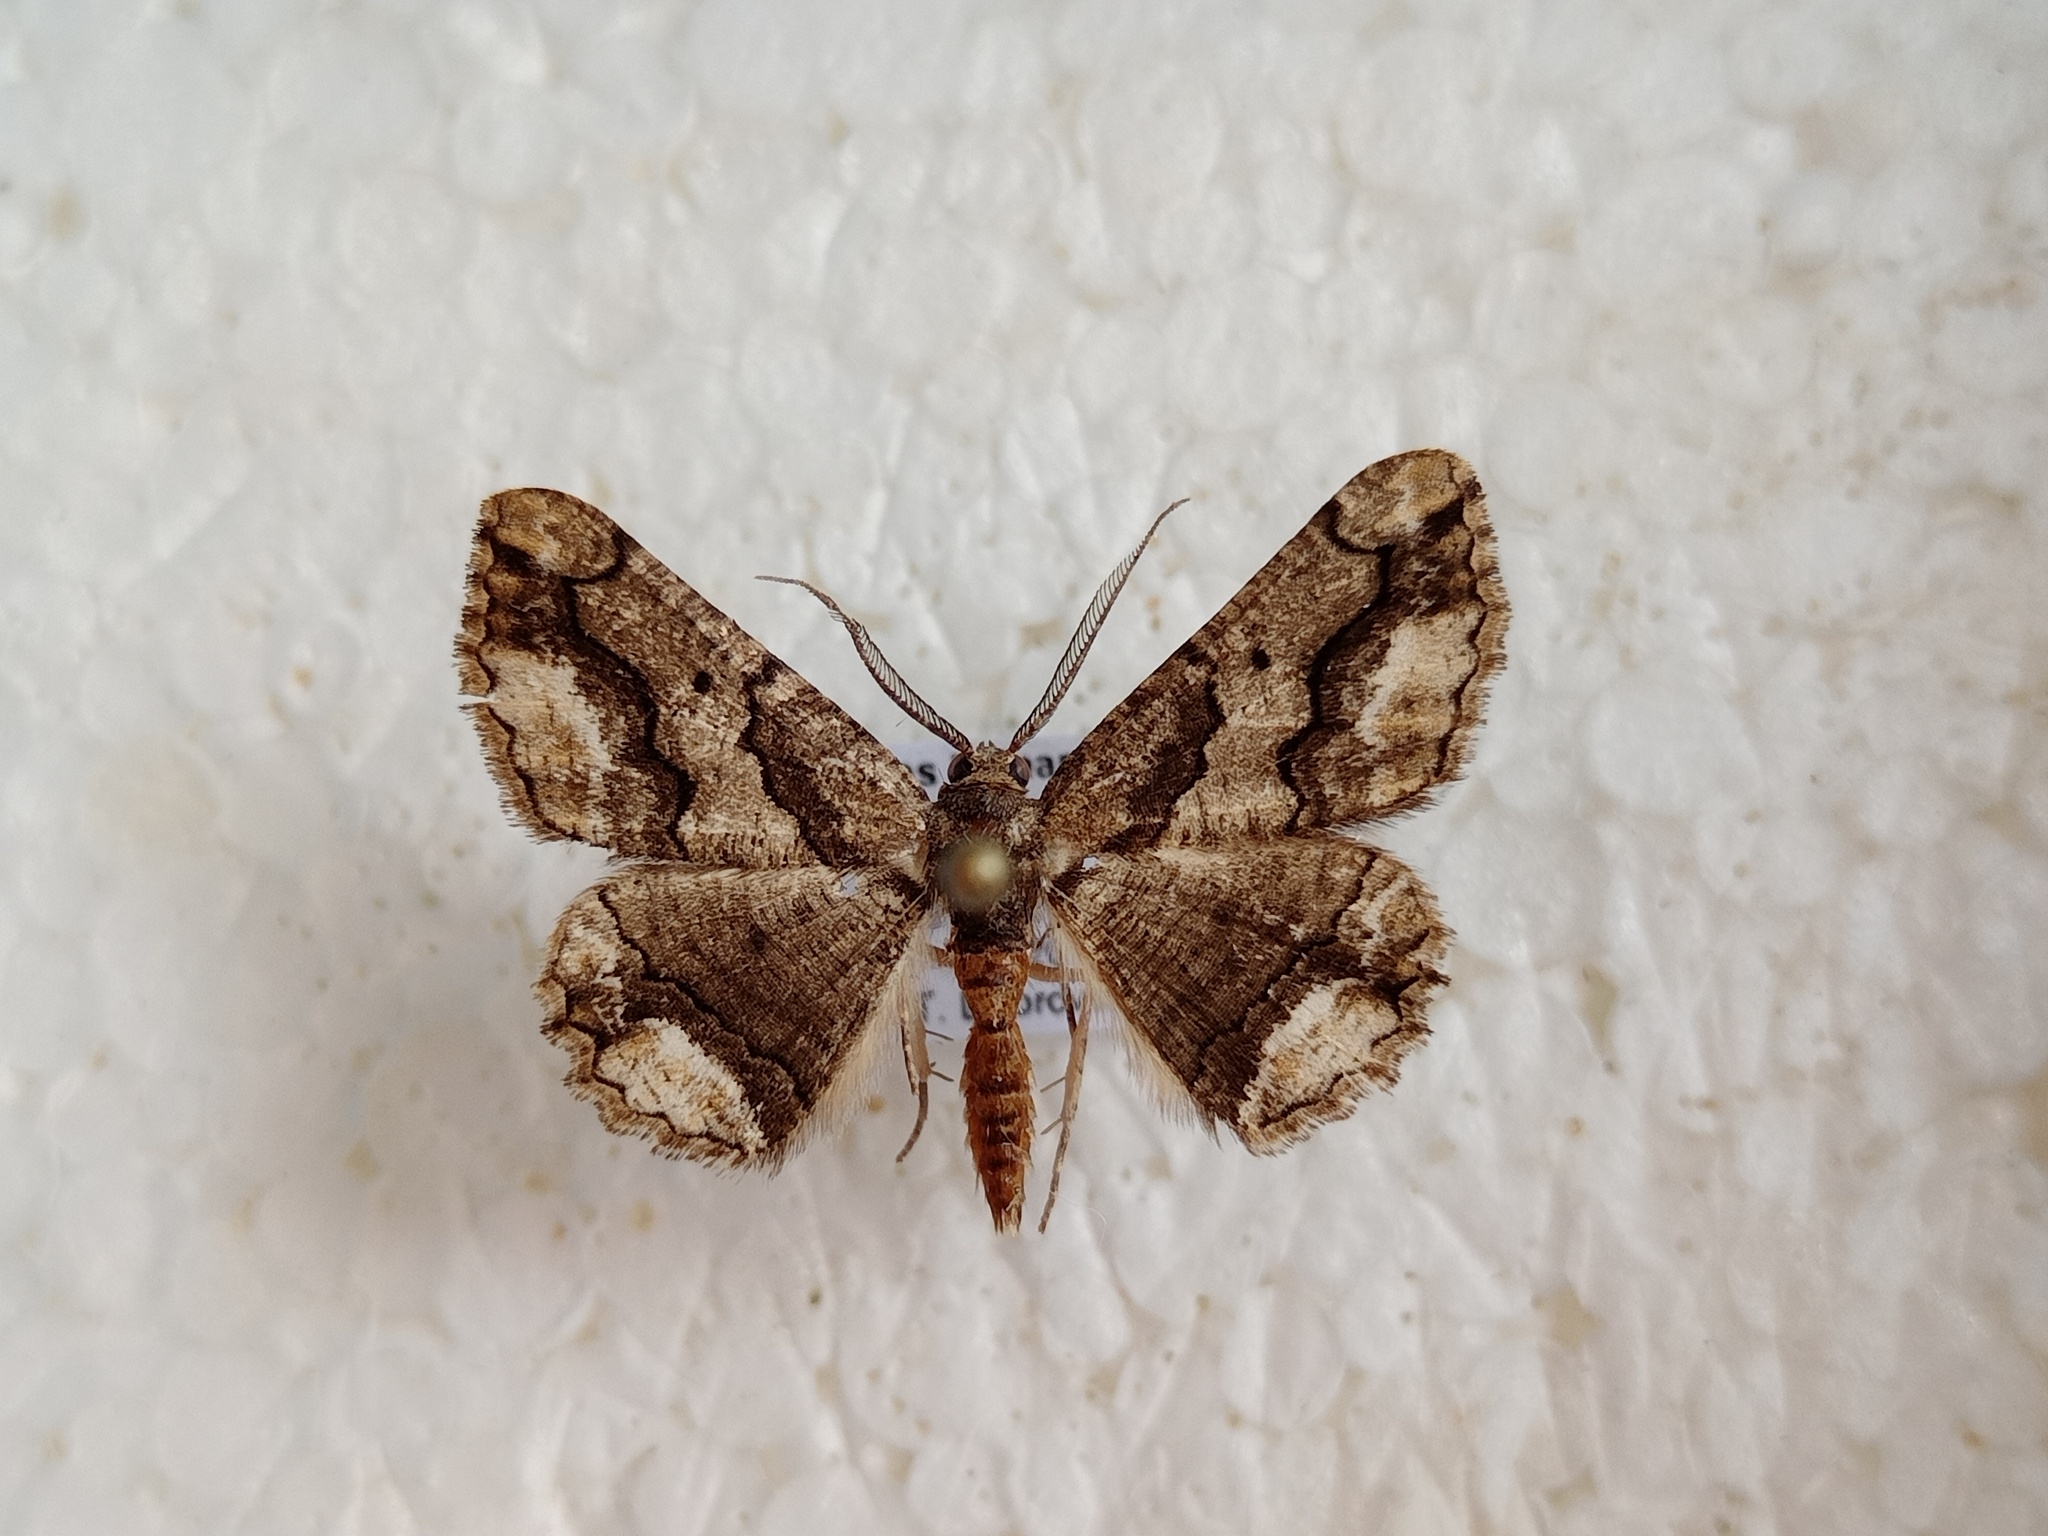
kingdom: Animalia
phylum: Arthropoda
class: Insecta
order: Lepidoptera
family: Geometridae
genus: Menophra
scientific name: Menophra japygiaria
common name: Brassy waved umber
